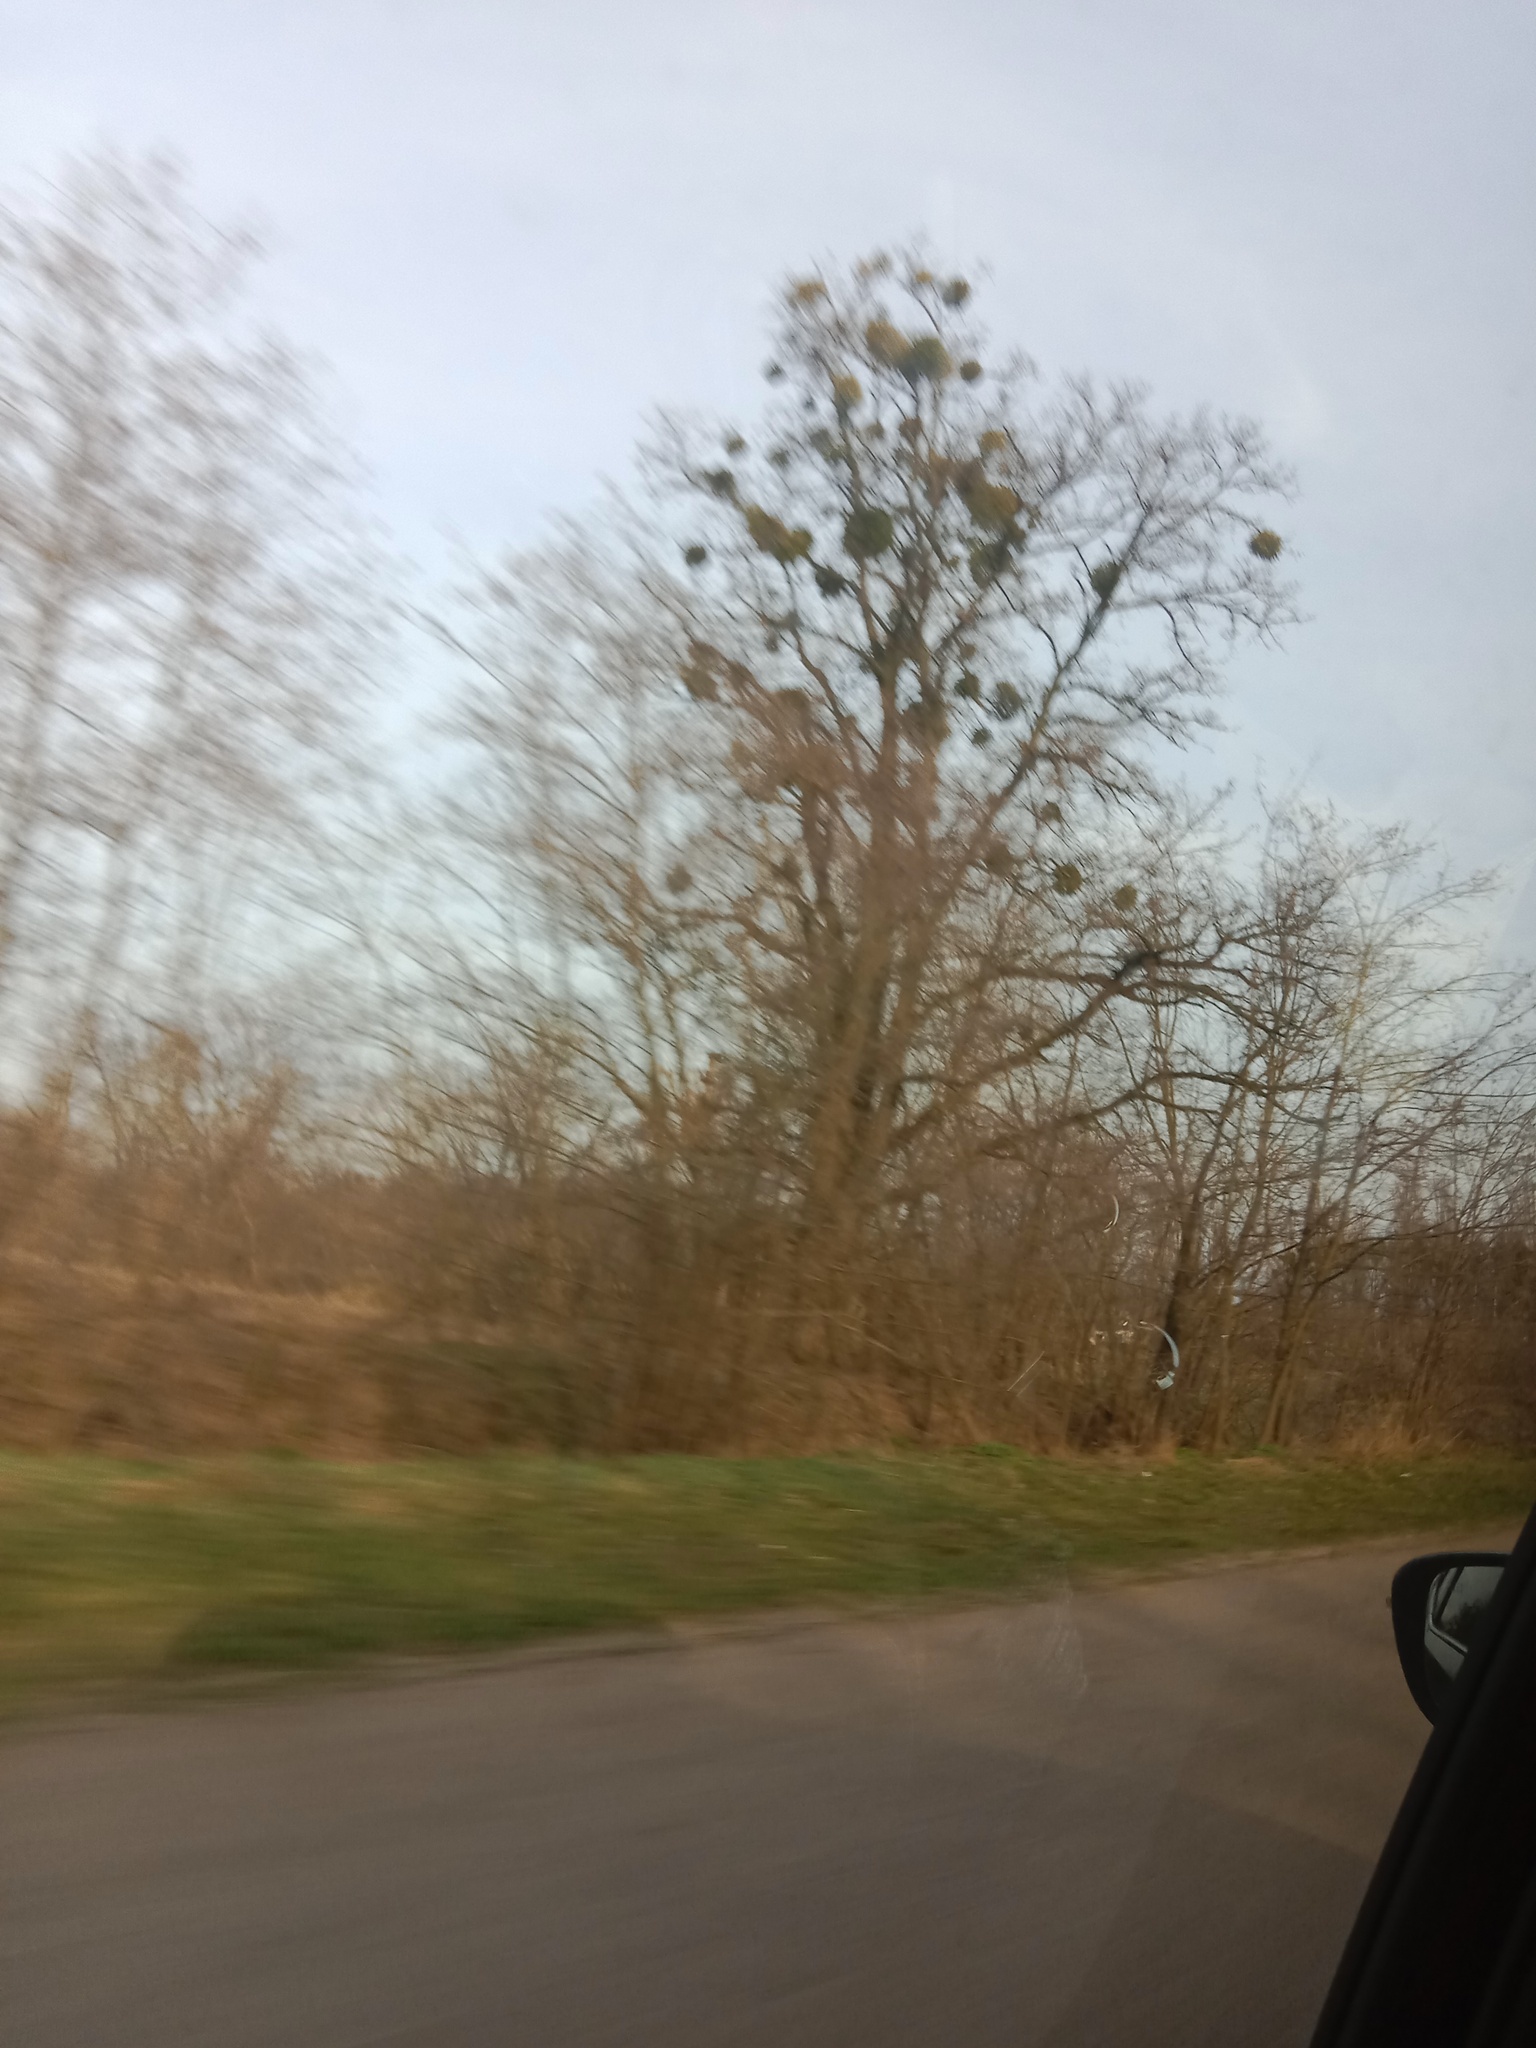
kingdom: Plantae
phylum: Tracheophyta
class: Magnoliopsida
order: Santalales
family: Viscaceae
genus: Viscum
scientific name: Viscum album
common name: Mistletoe
